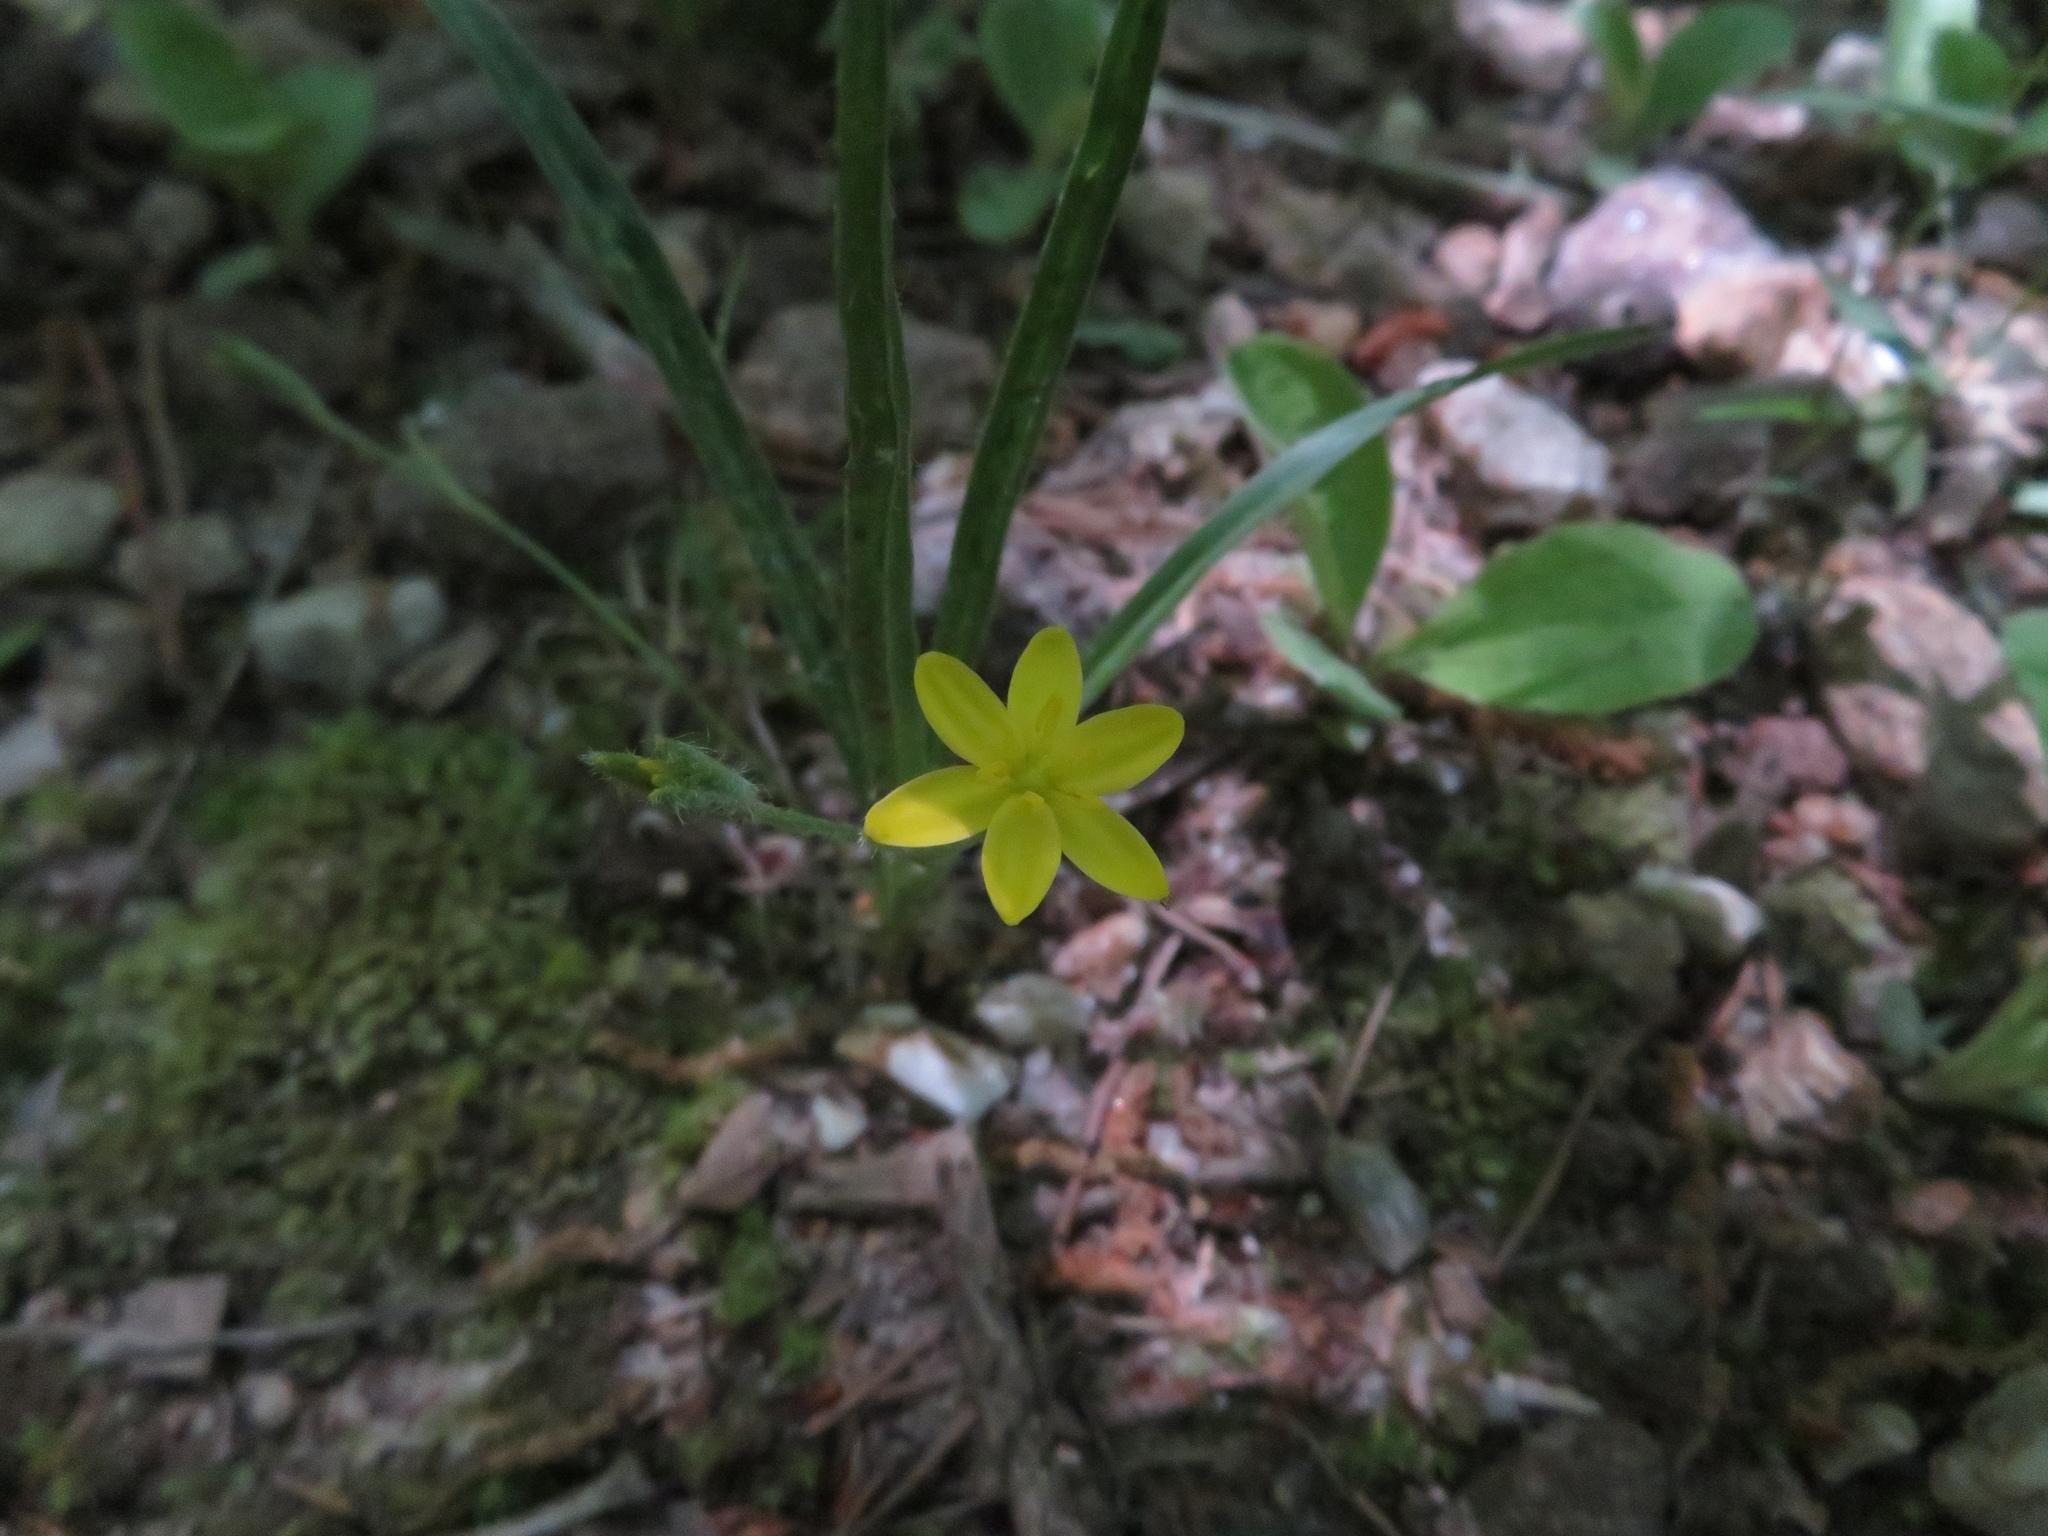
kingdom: Plantae
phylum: Tracheophyta
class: Liliopsida
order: Asparagales
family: Hypoxidaceae
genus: Hypoxis
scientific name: Hypoxis hirsuta
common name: Common goldstar
